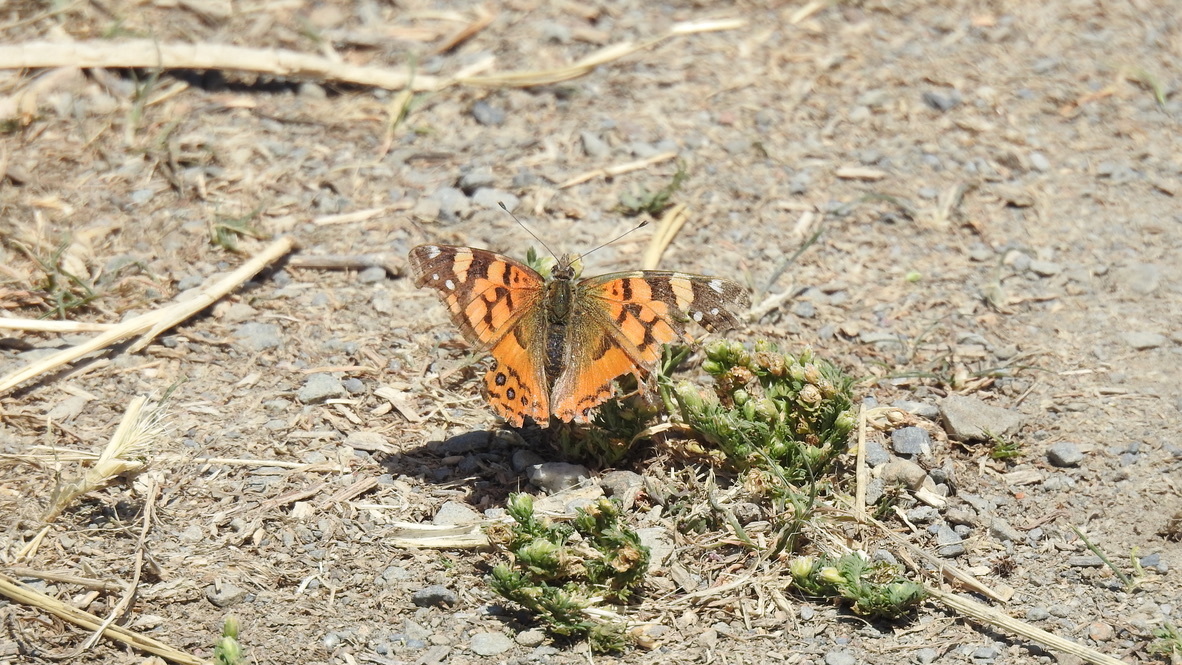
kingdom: Animalia
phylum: Arthropoda
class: Insecta
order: Lepidoptera
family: Nymphalidae
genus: Vanessa
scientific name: Vanessa annabella
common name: West coast lady
